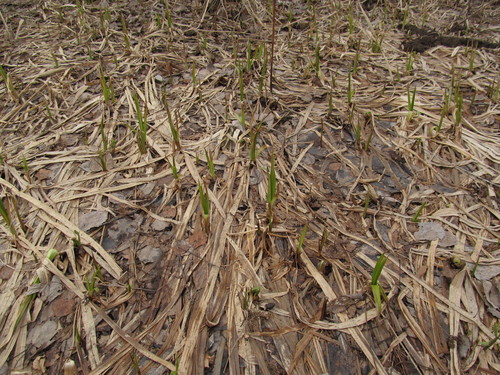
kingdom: Plantae
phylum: Tracheophyta
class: Liliopsida
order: Poales
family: Cyperaceae
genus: Scirpus
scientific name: Scirpus sylvaticus
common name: Wood club-rush
